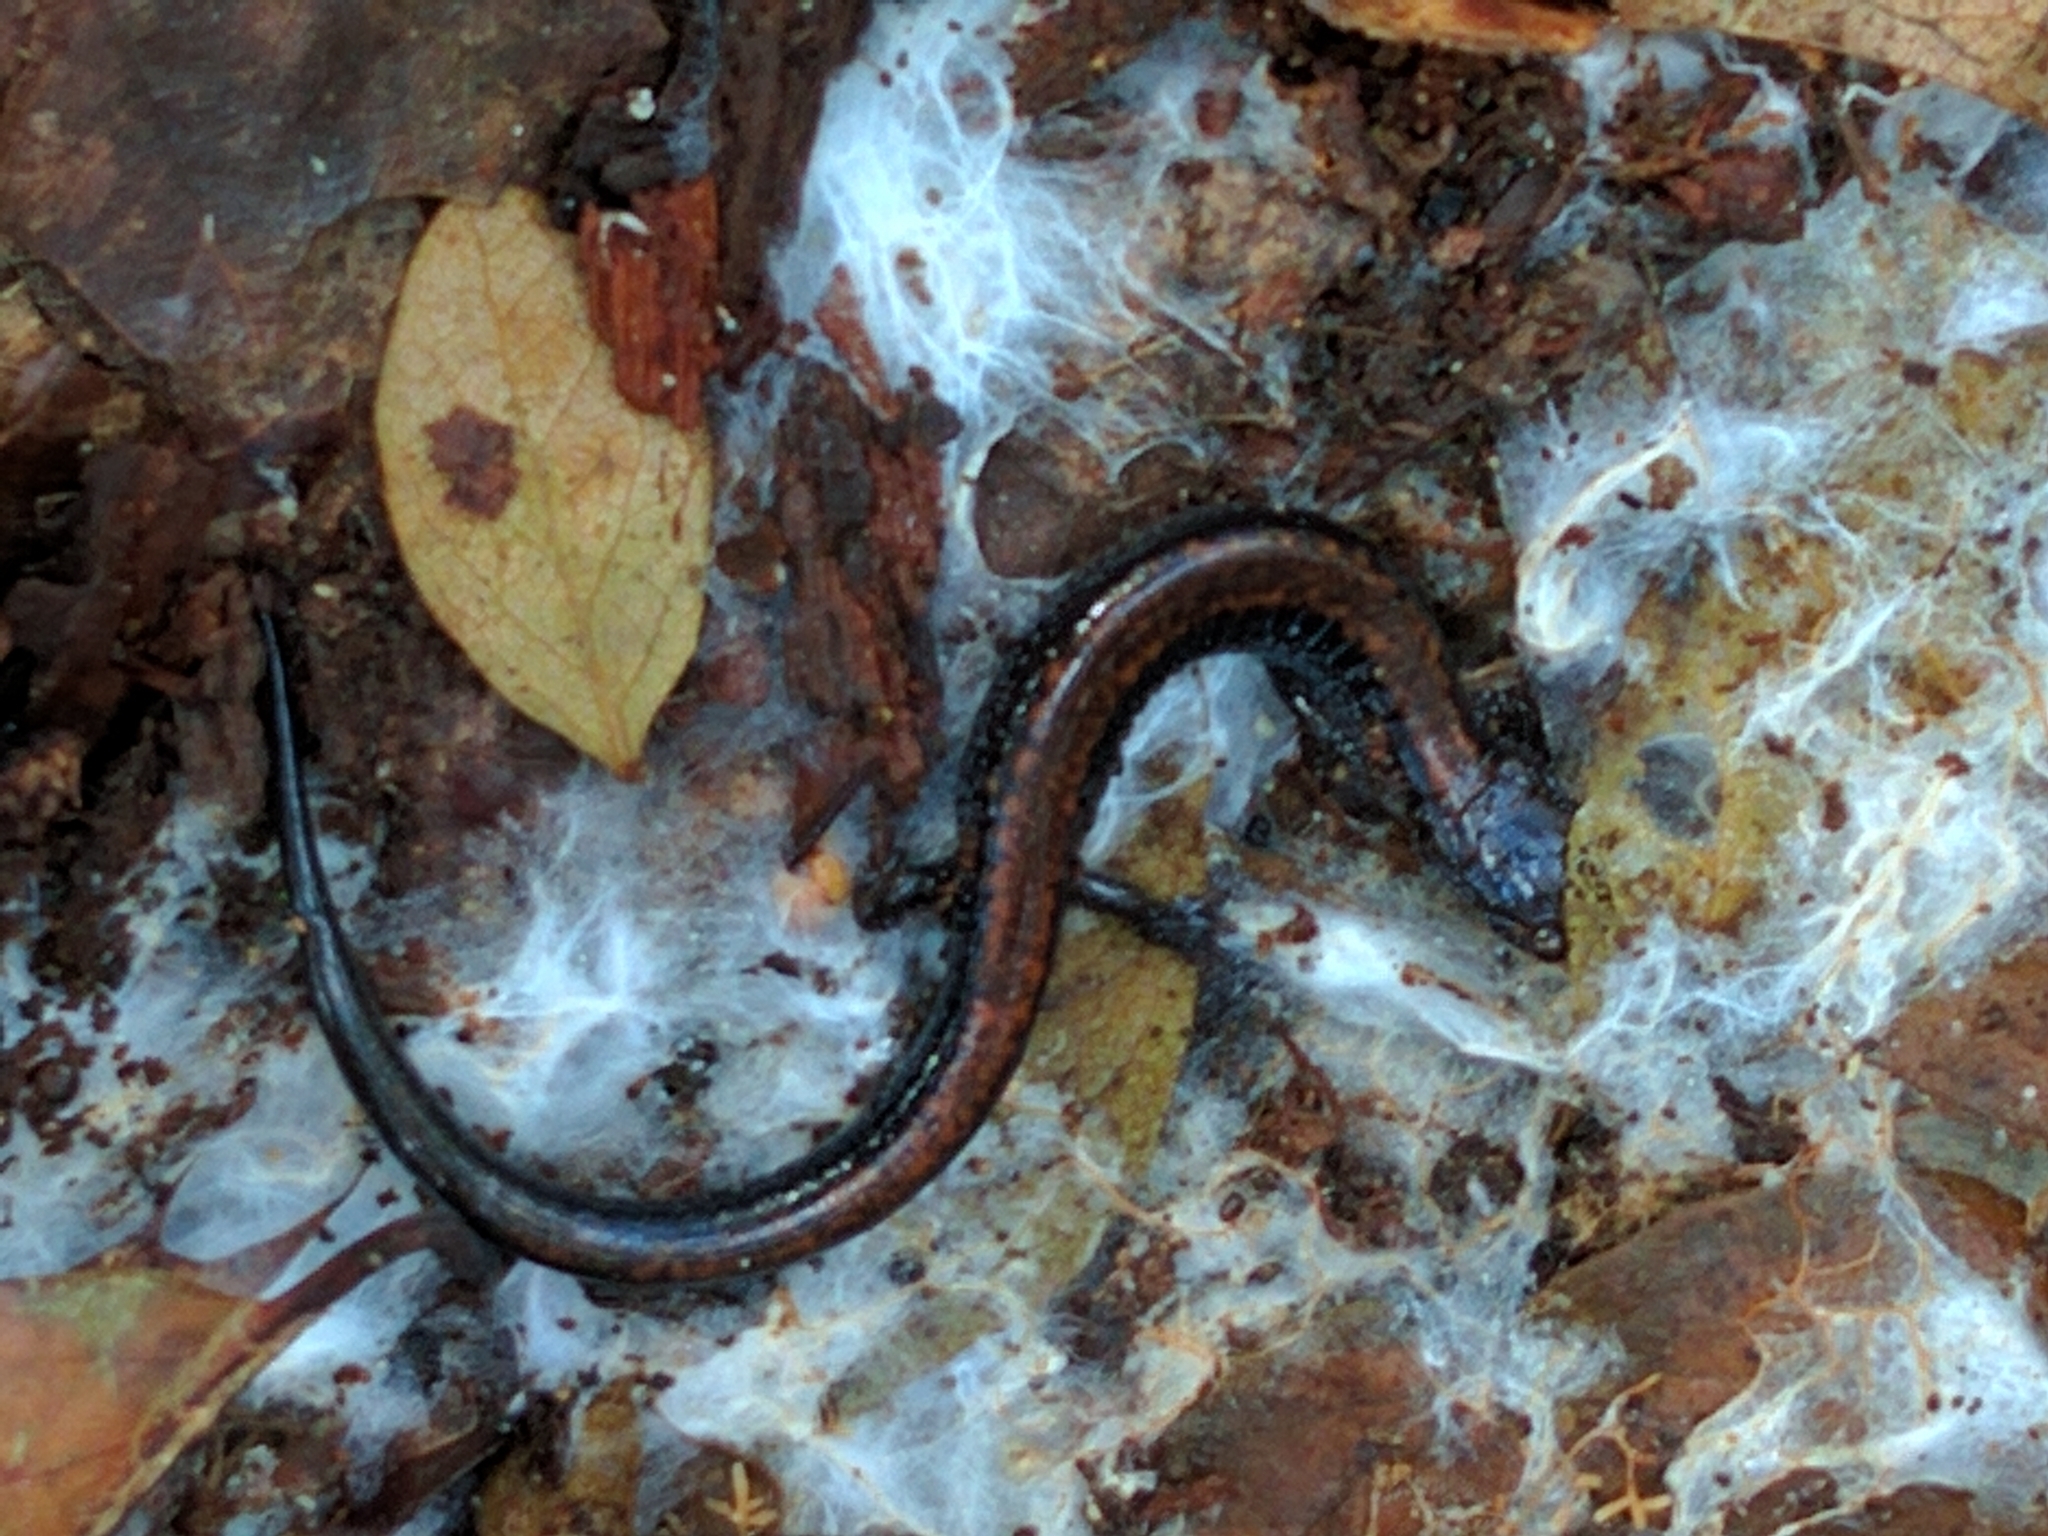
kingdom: Animalia
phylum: Chordata
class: Amphibia
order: Caudata
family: Plethodontidae
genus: Plethodon
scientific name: Plethodon cinereus
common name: Redback salamander
